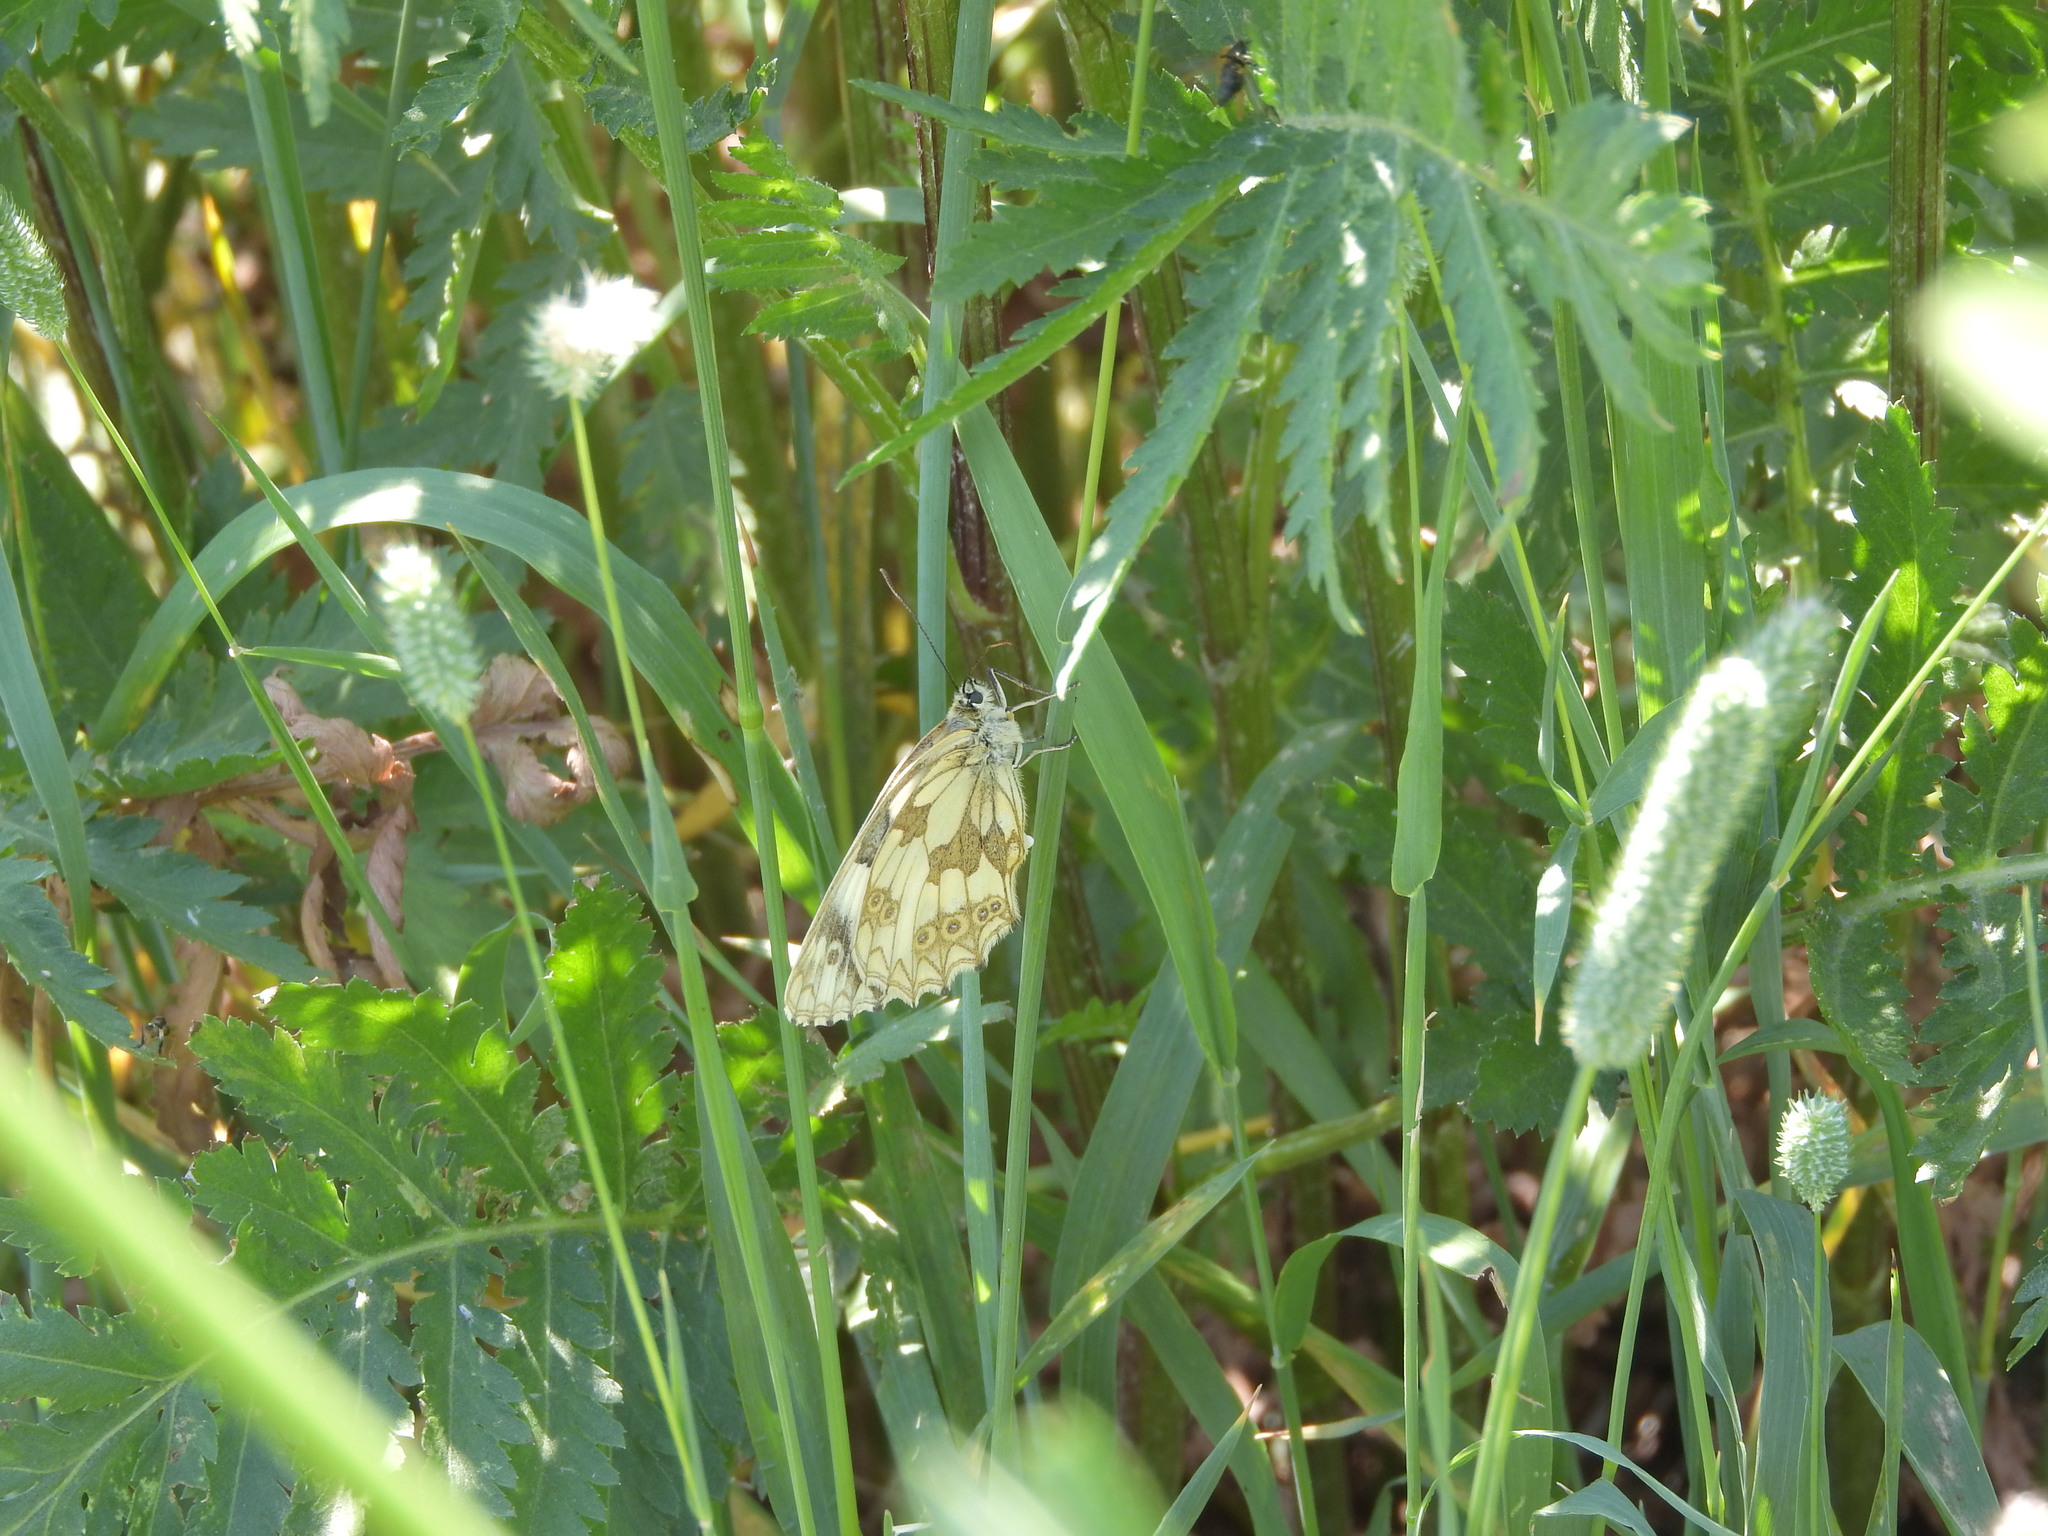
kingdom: Animalia
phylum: Arthropoda
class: Insecta
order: Lepidoptera
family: Nymphalidae
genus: Melanargia
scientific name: Melanargia galathea
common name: Marbled white
